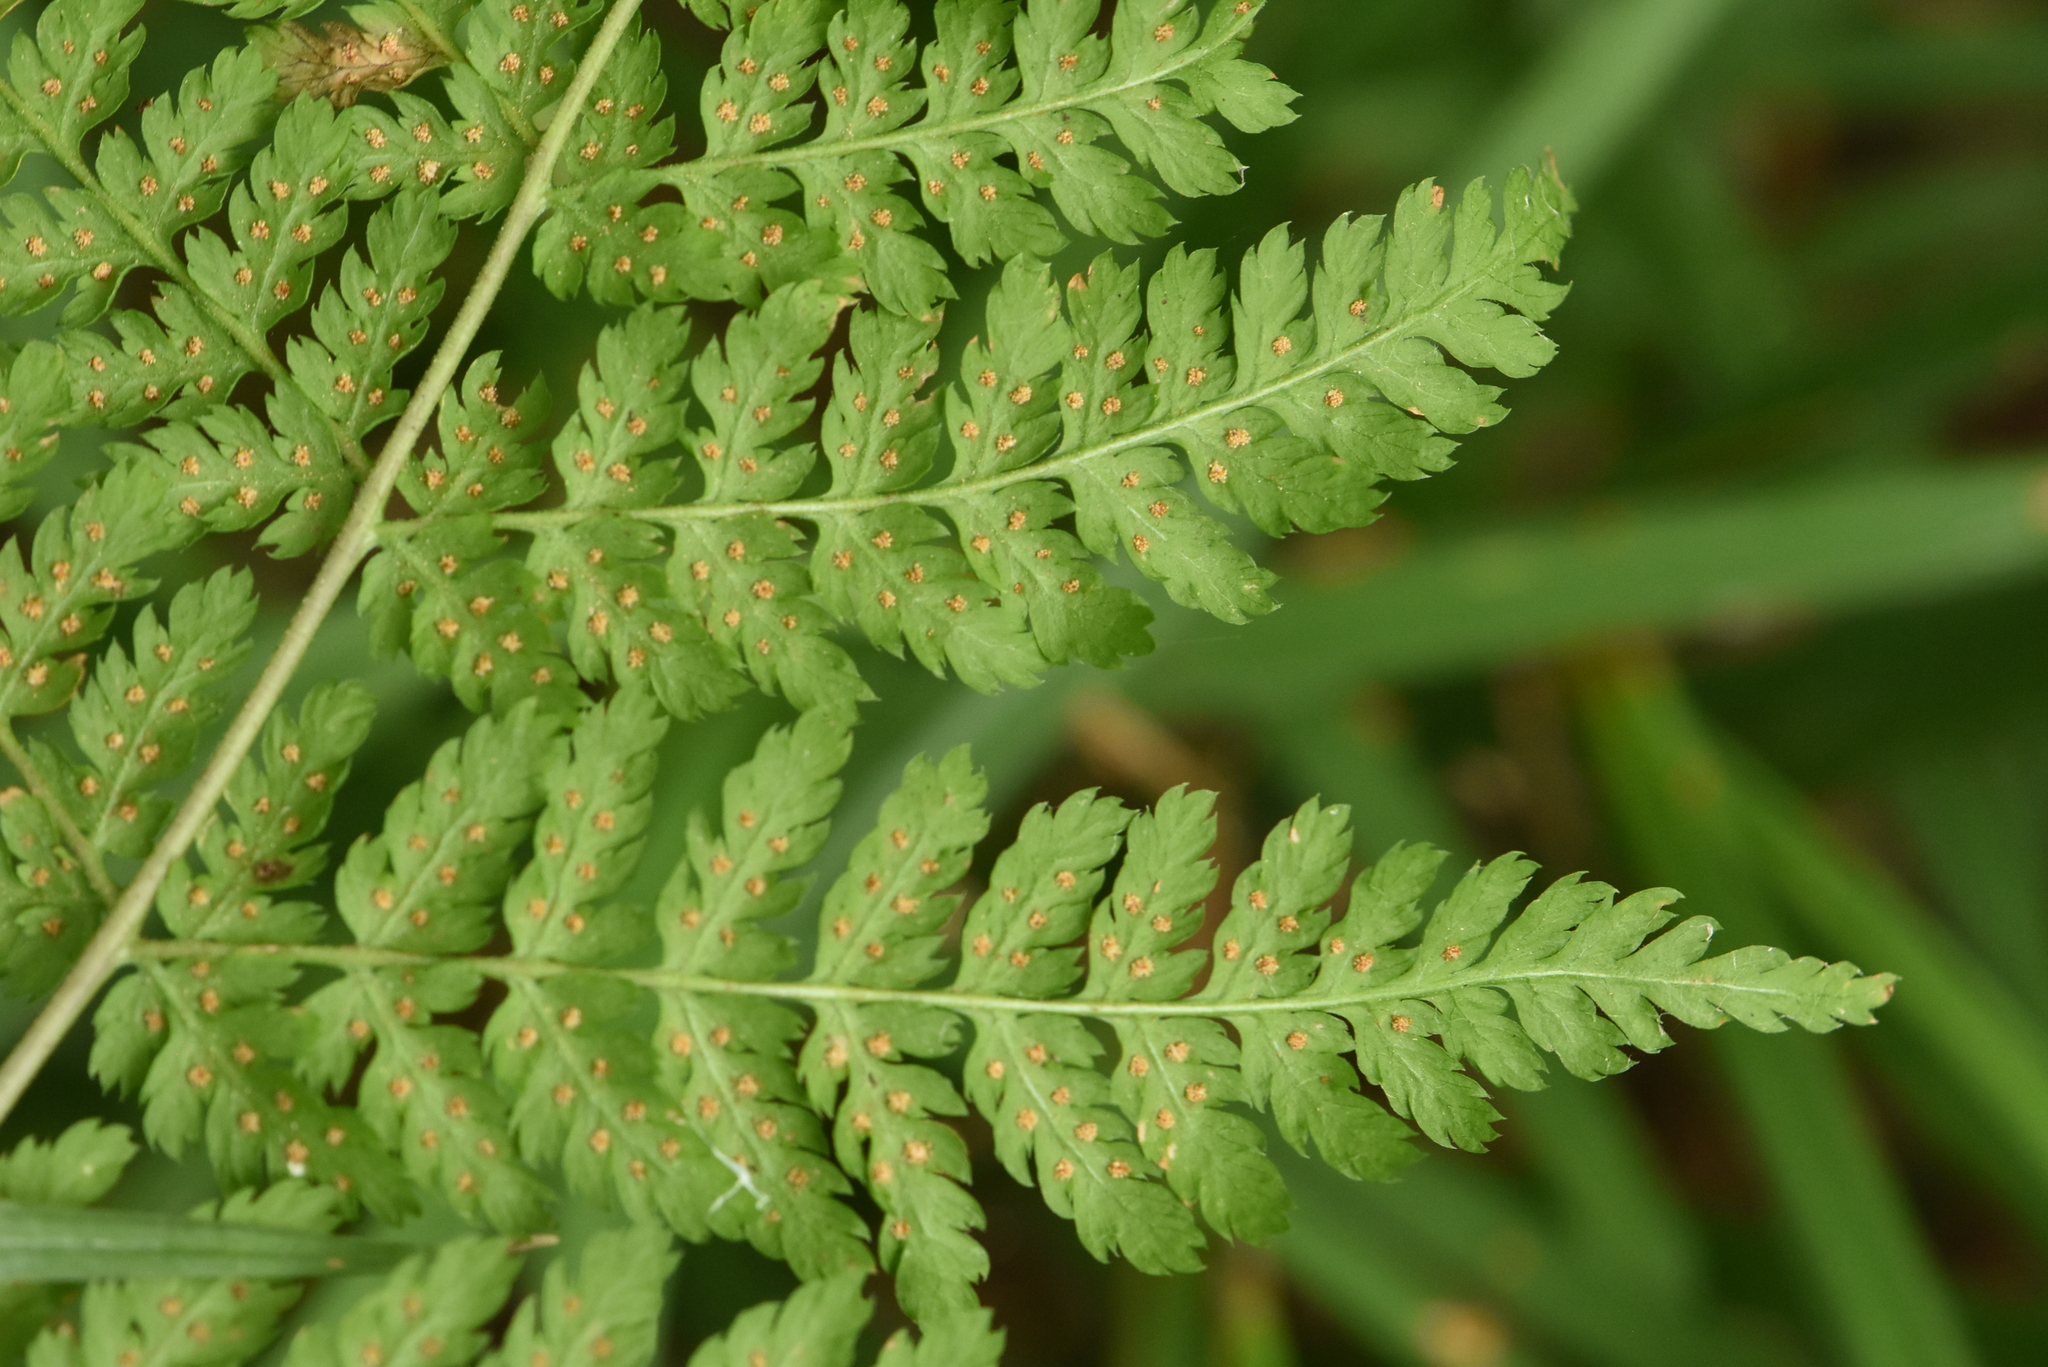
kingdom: Plantae
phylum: Tracheophyta
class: Polypodiopsida
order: Polypodiales
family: Dryopteridaceae
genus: Dryopteris
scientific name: Dryopteris expansa
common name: Northern buckler fern
